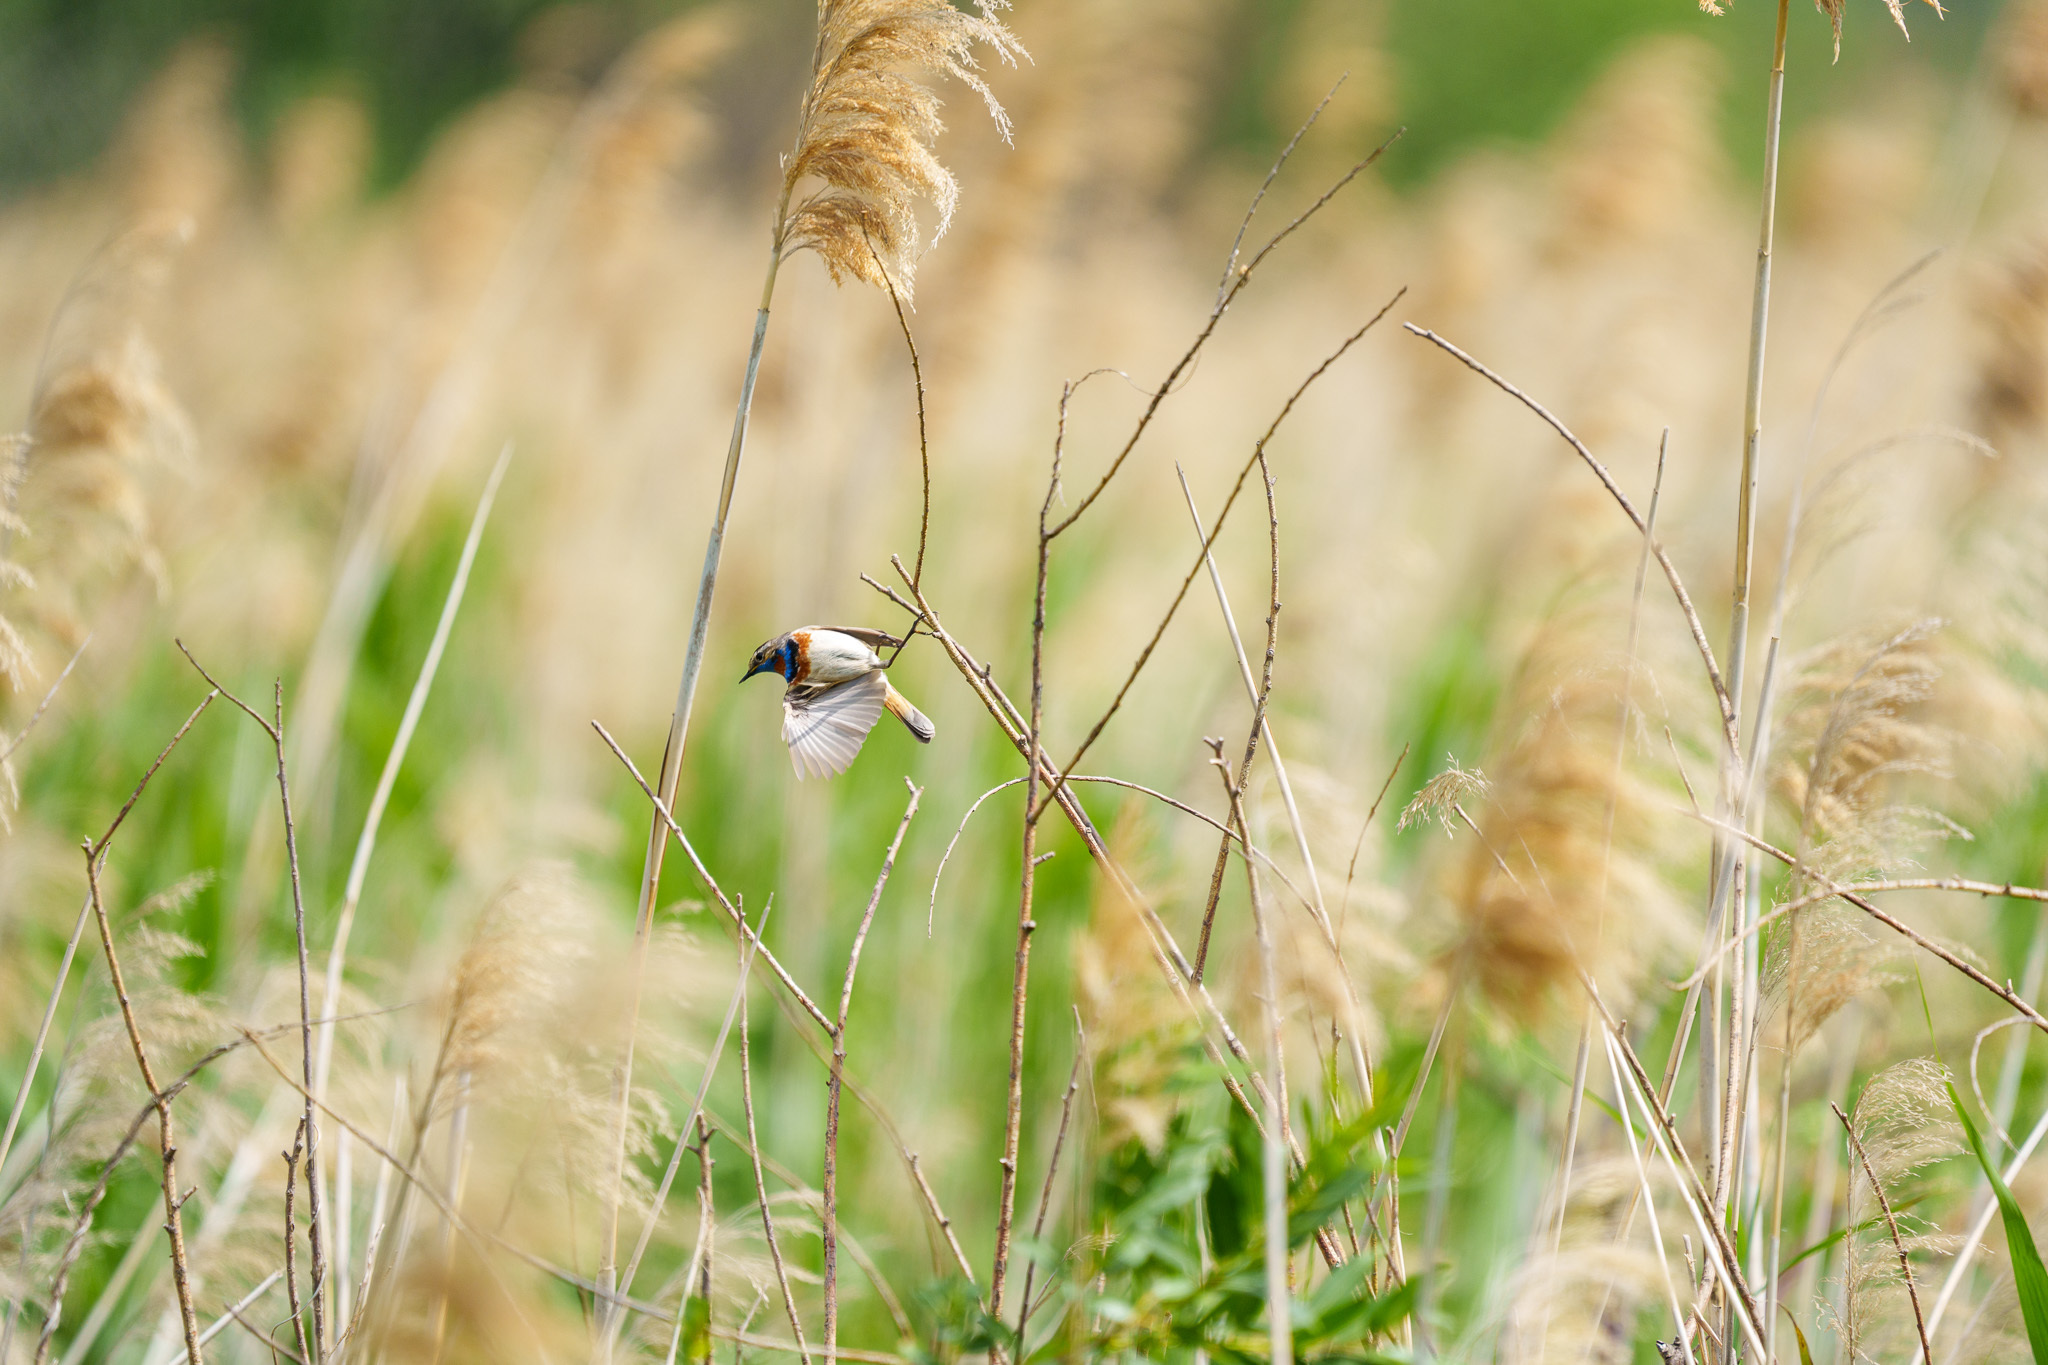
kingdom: Animalia
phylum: Chordata
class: Aves
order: Passeriformes
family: Muscicapidae
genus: Luscinia
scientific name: Luscinia svecica
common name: Bluethroat
